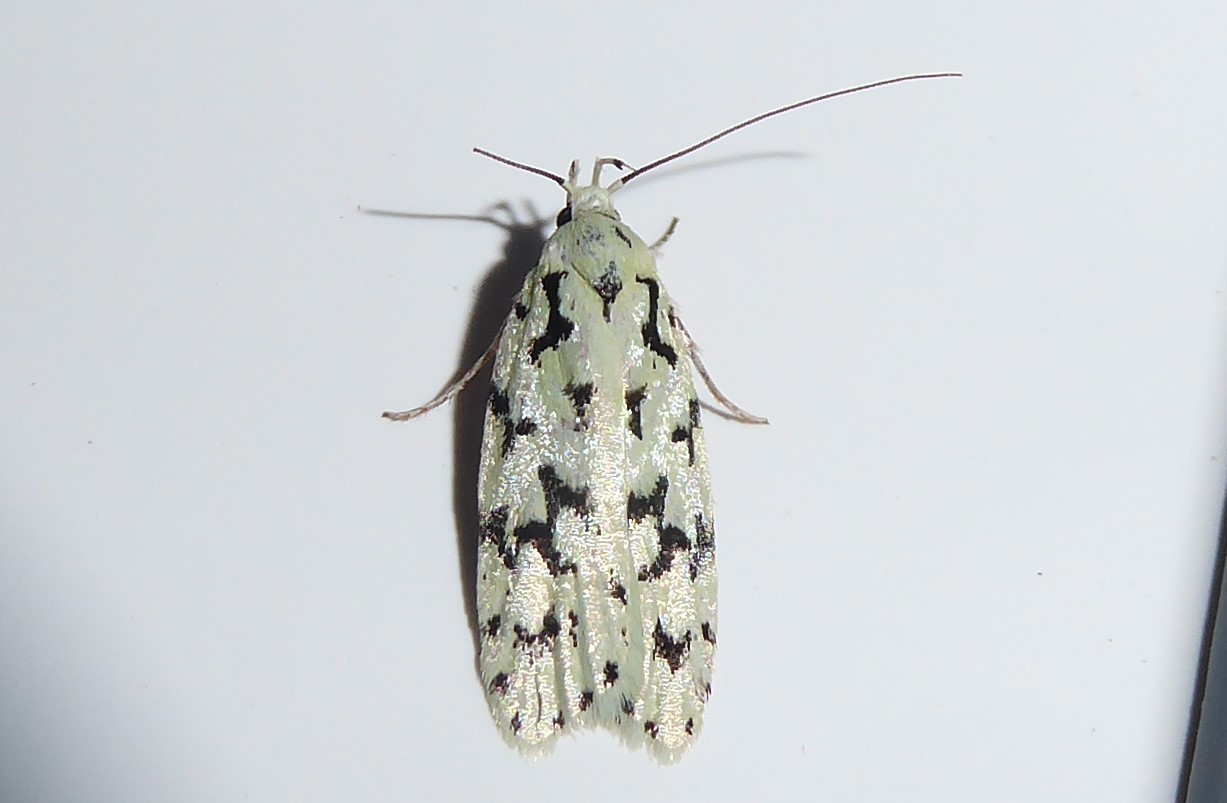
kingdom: Animalia
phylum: Arthropoda
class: Insecta
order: Lepidoptera
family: Oecophoridae
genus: Izatha
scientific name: Izatha huttoni
